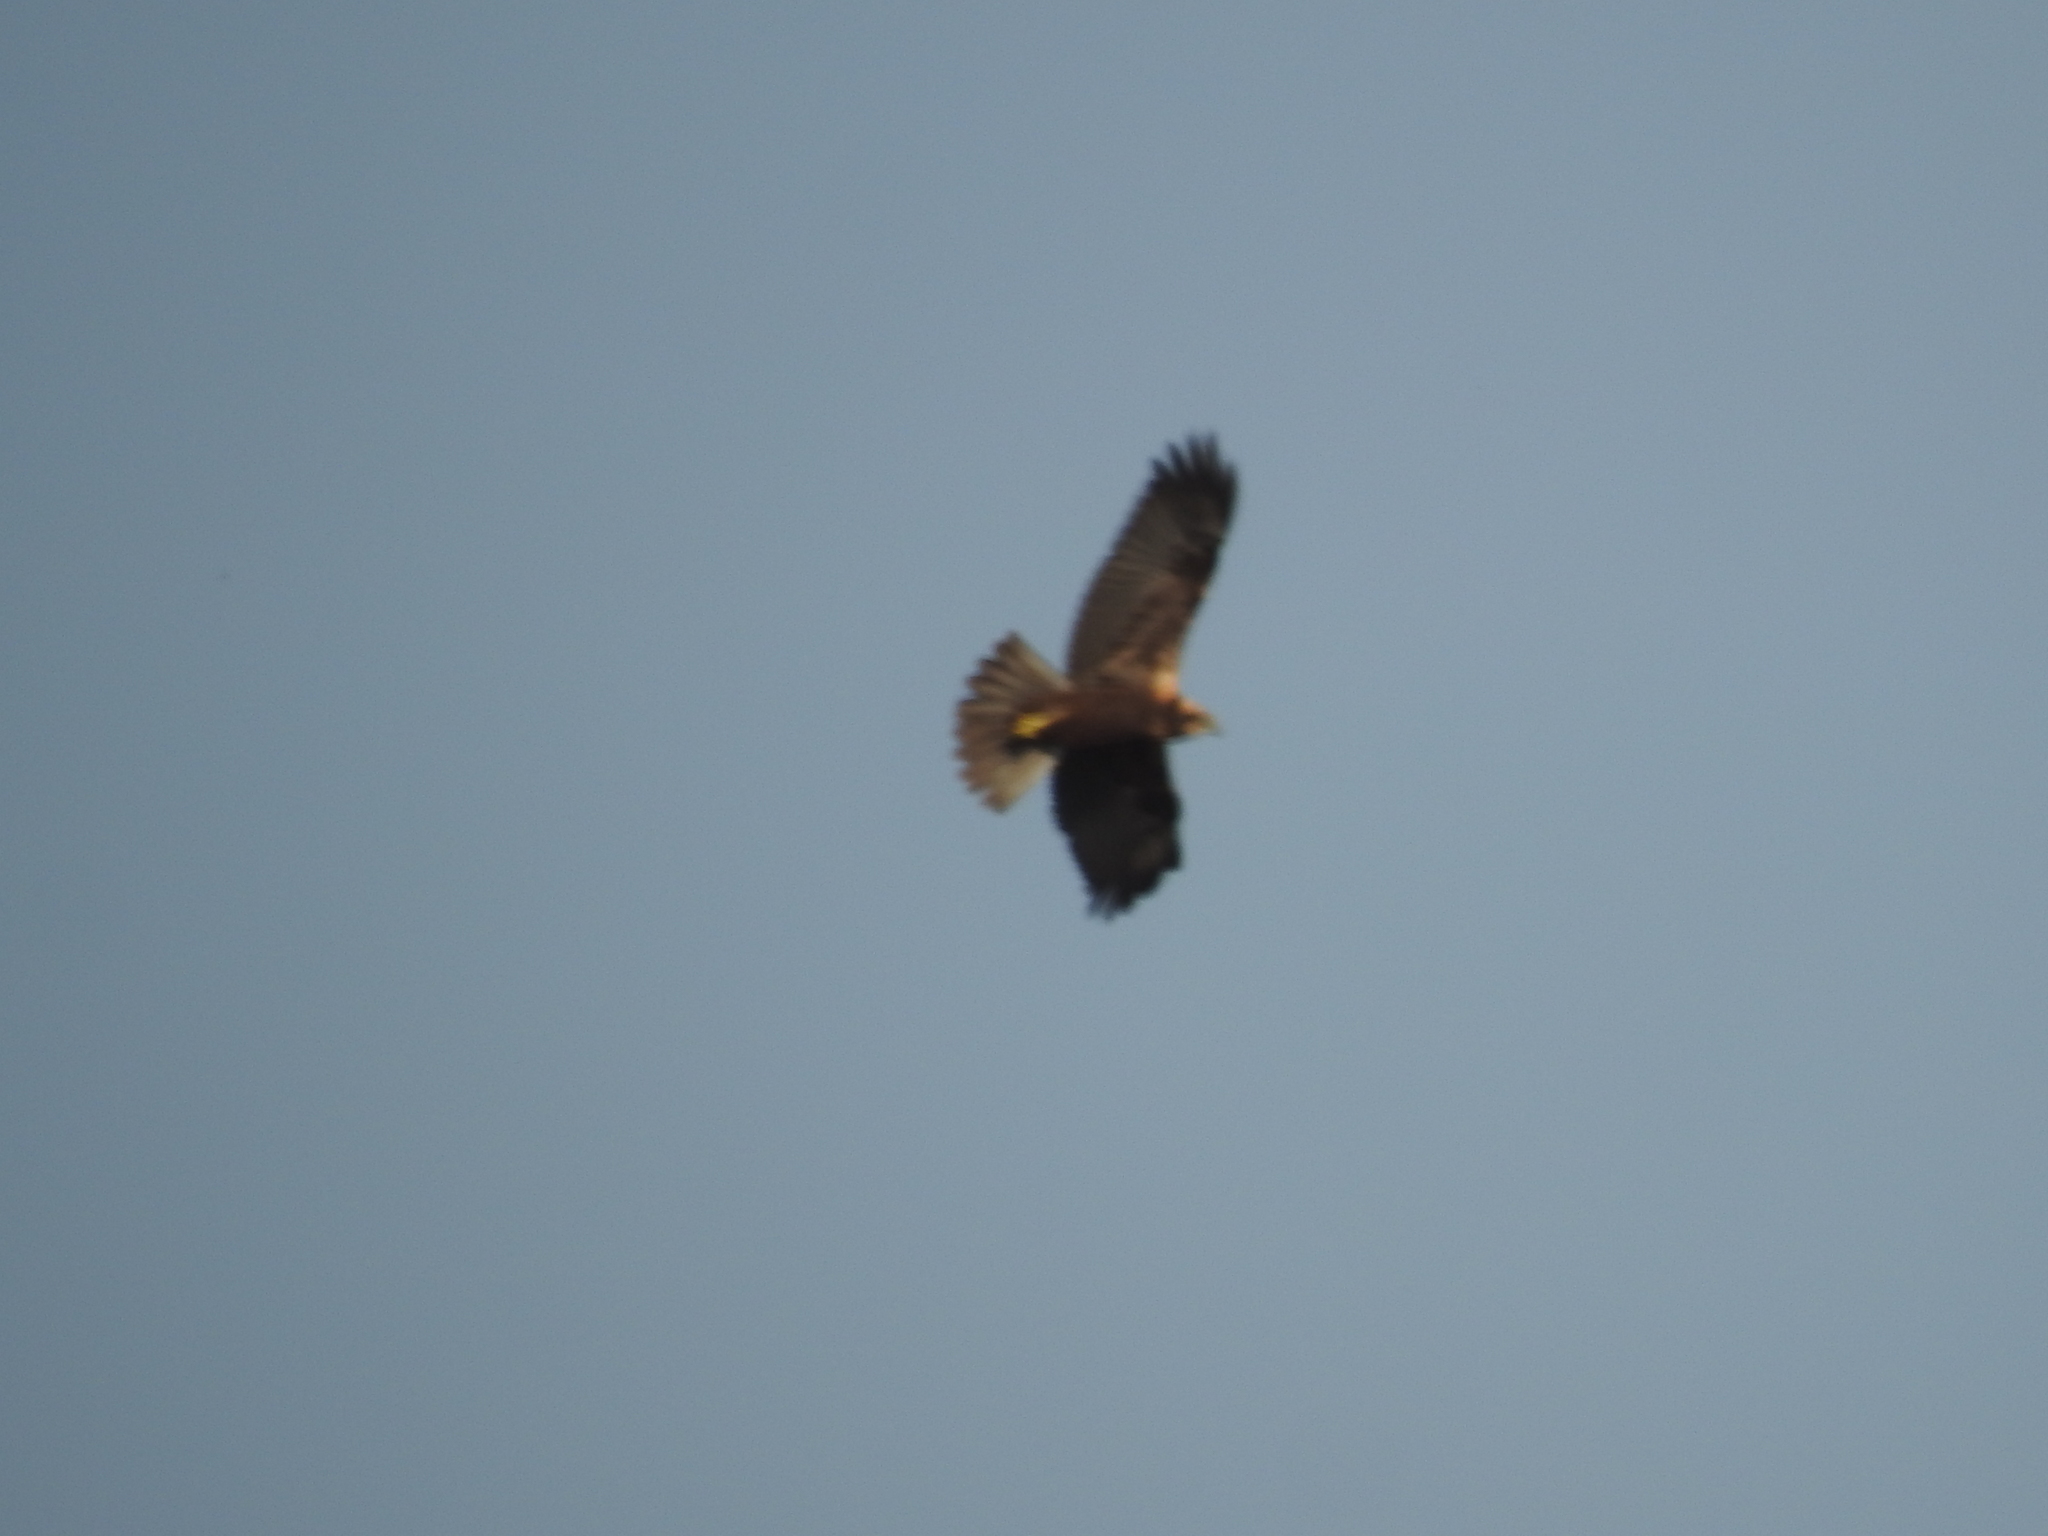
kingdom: Animalia
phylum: Chordata
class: Aves
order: Accipitriformes
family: Accipitridae
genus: Circus
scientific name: Circus aeruginosus
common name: Western marsh harrier
